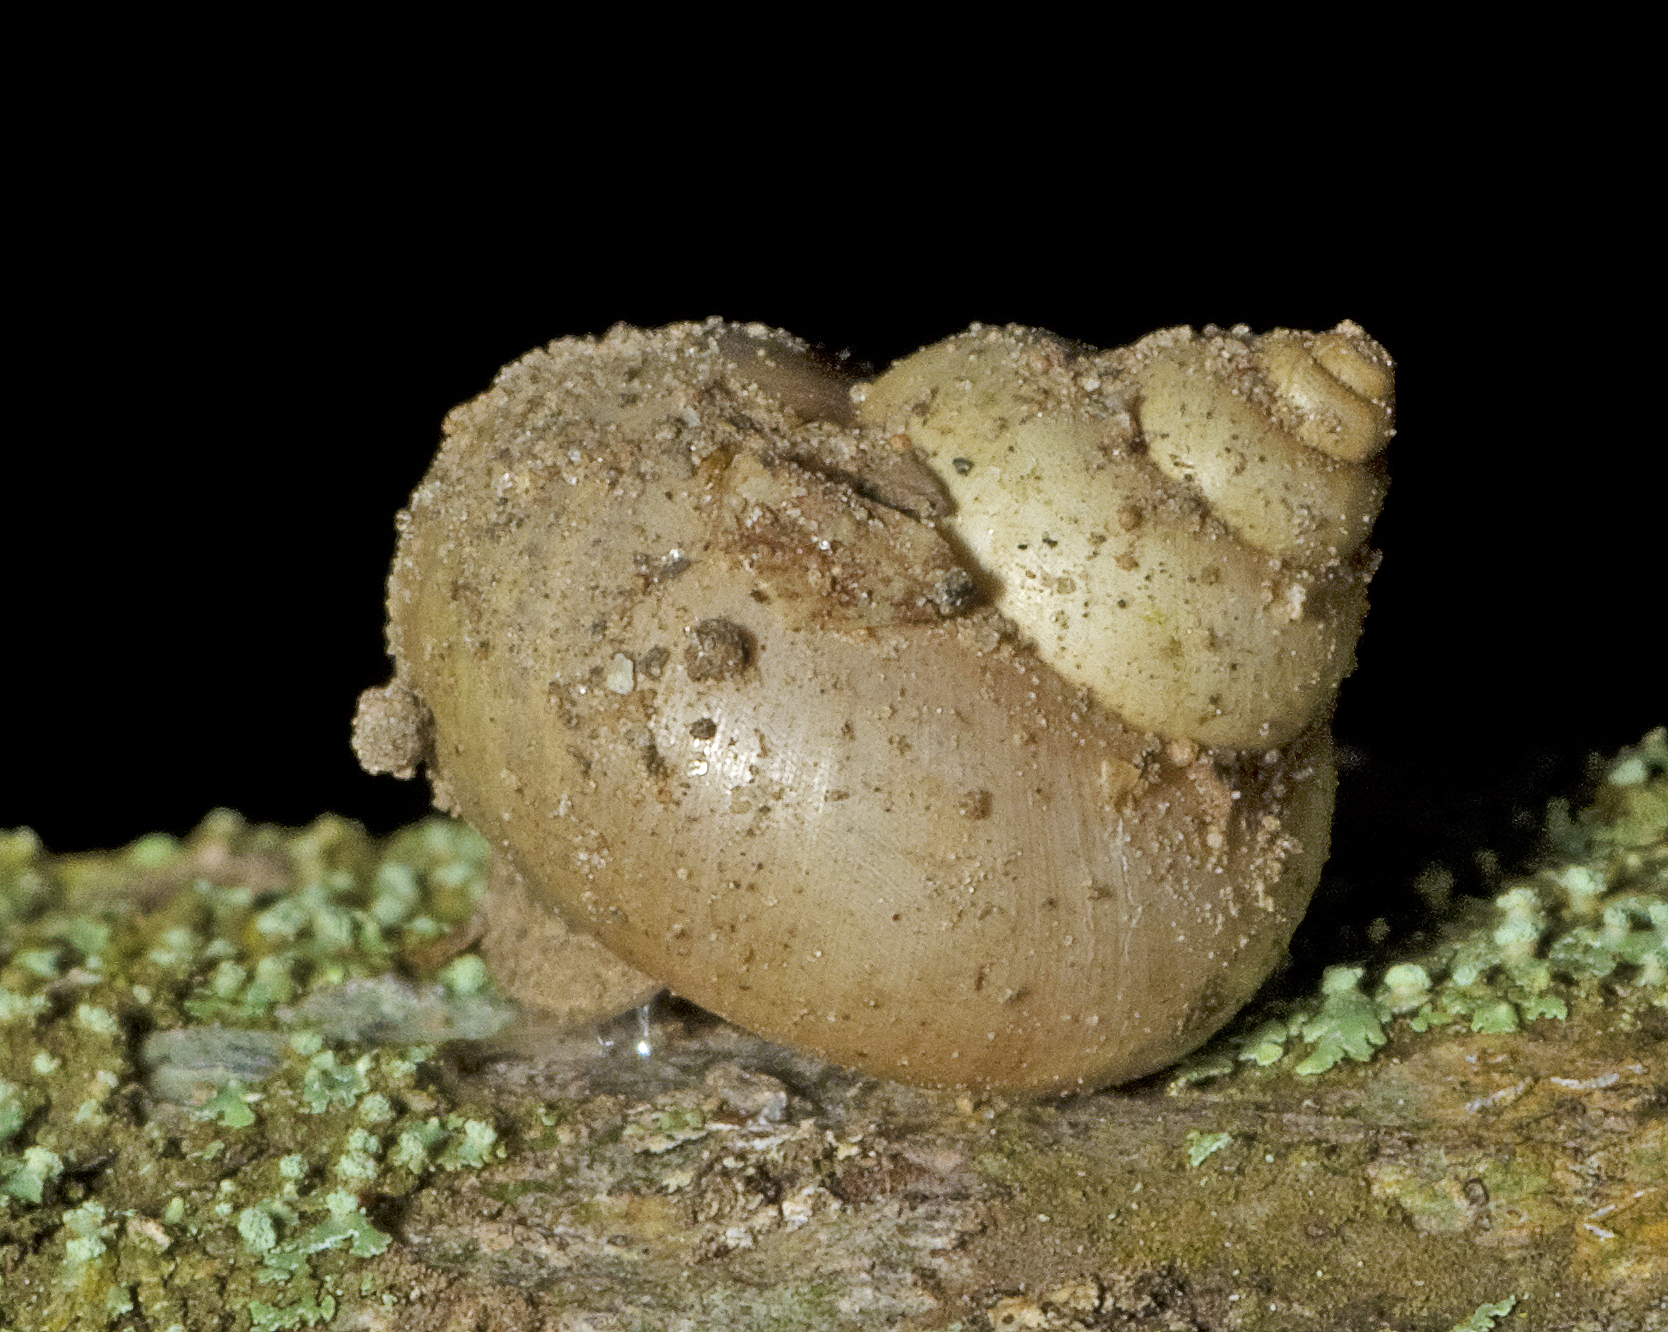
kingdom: Animalia
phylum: Mollusca
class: Gastropoda
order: Architaenioglossa
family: Cyclophoridae
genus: Leptopoma
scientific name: Leptopoma perlucidum
